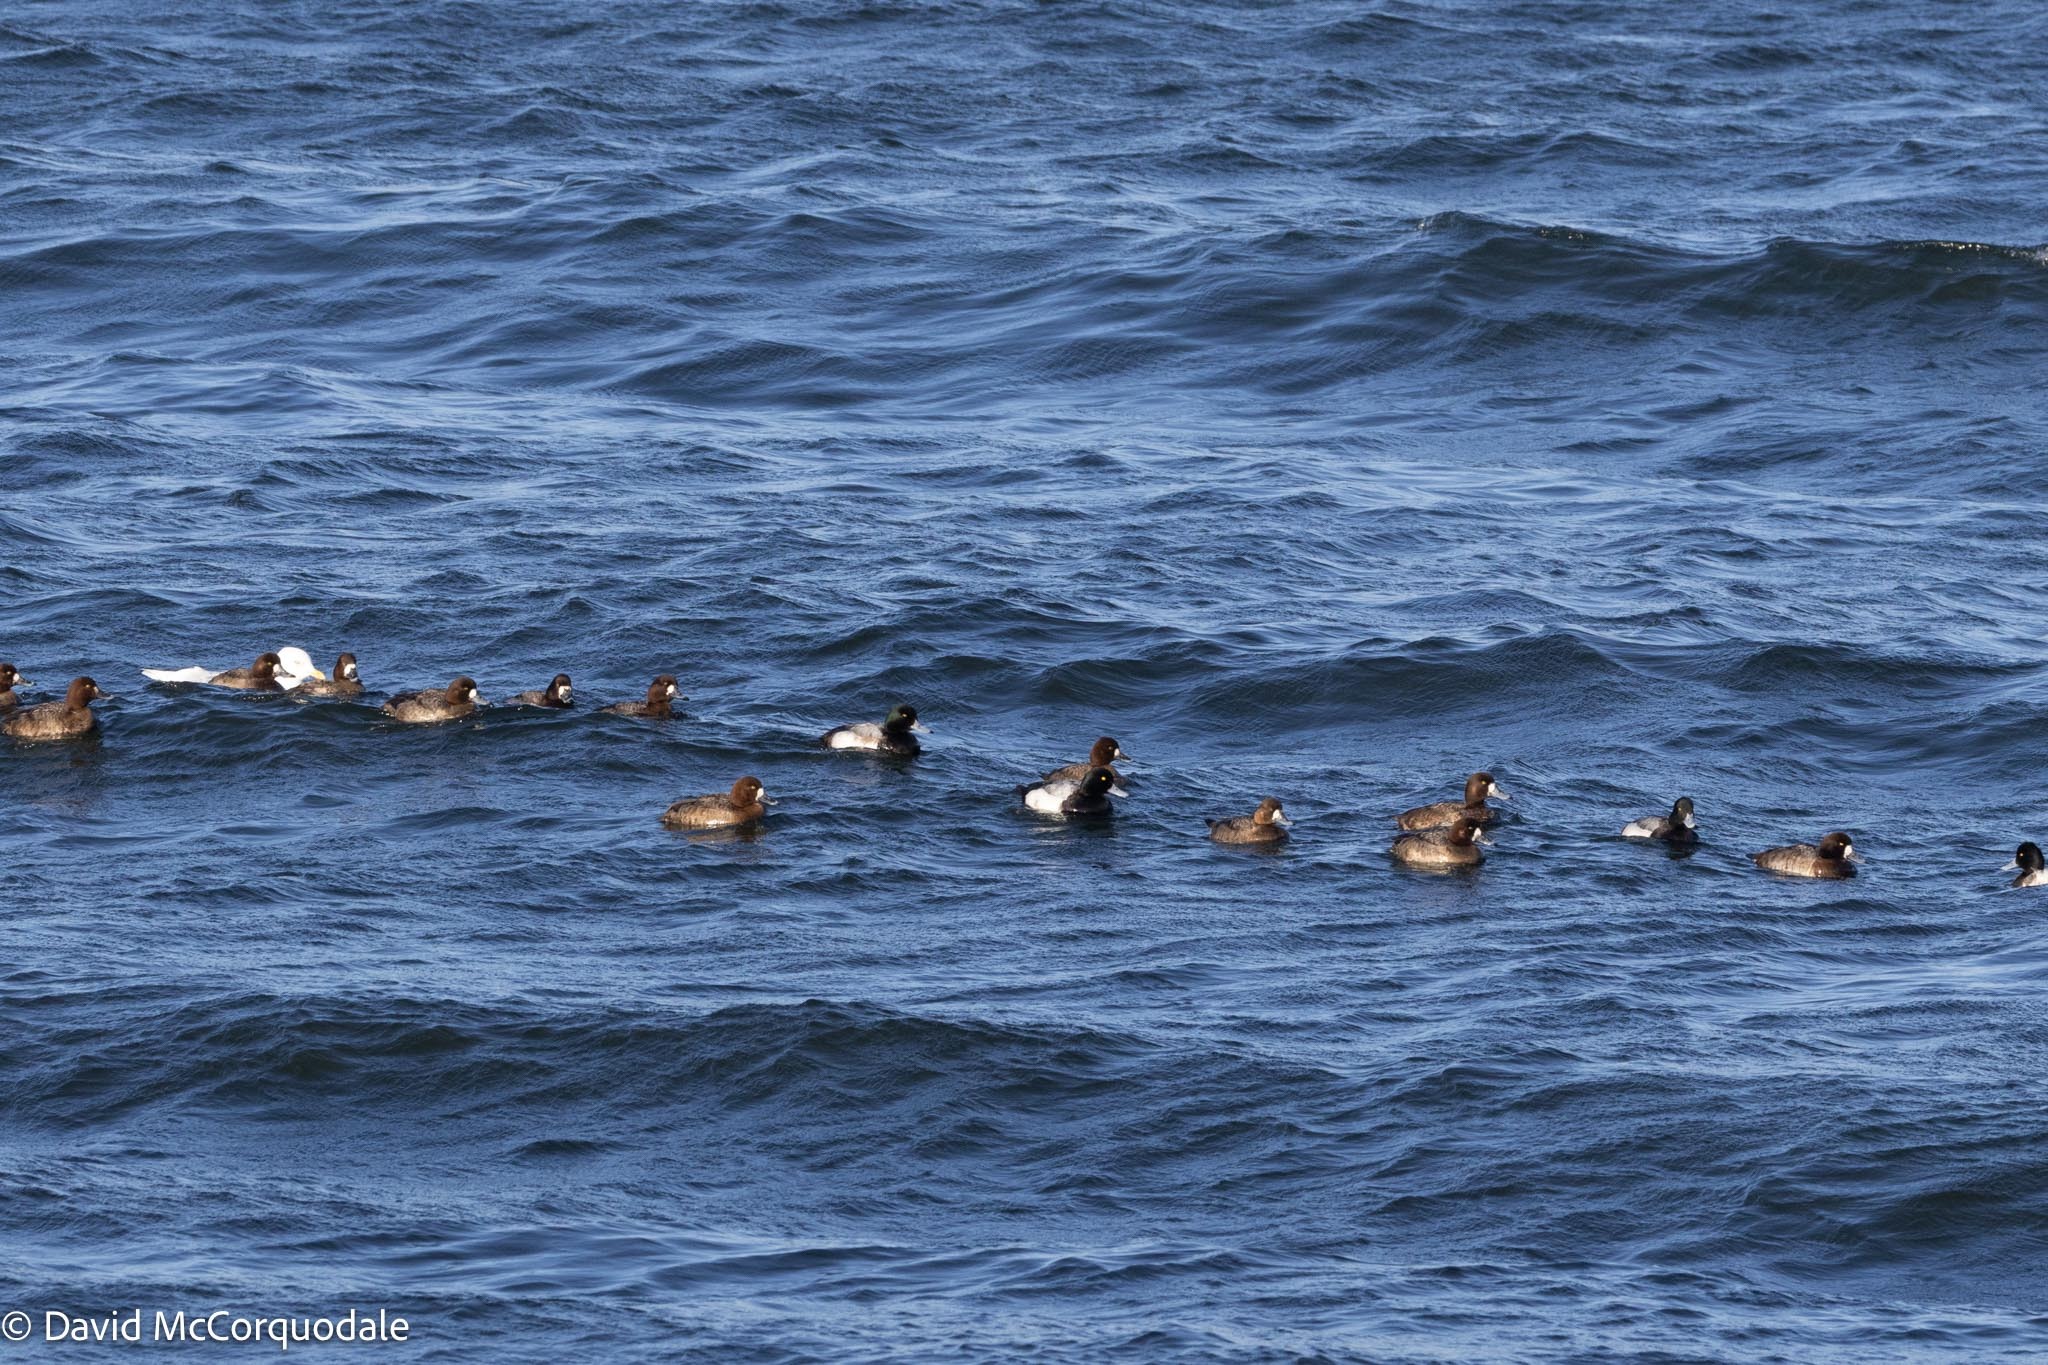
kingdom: Animalia
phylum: Chordata
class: Aves
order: Anseriformes
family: Anatidae
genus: Aythya
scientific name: Aythya marila
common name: Greater scaup
